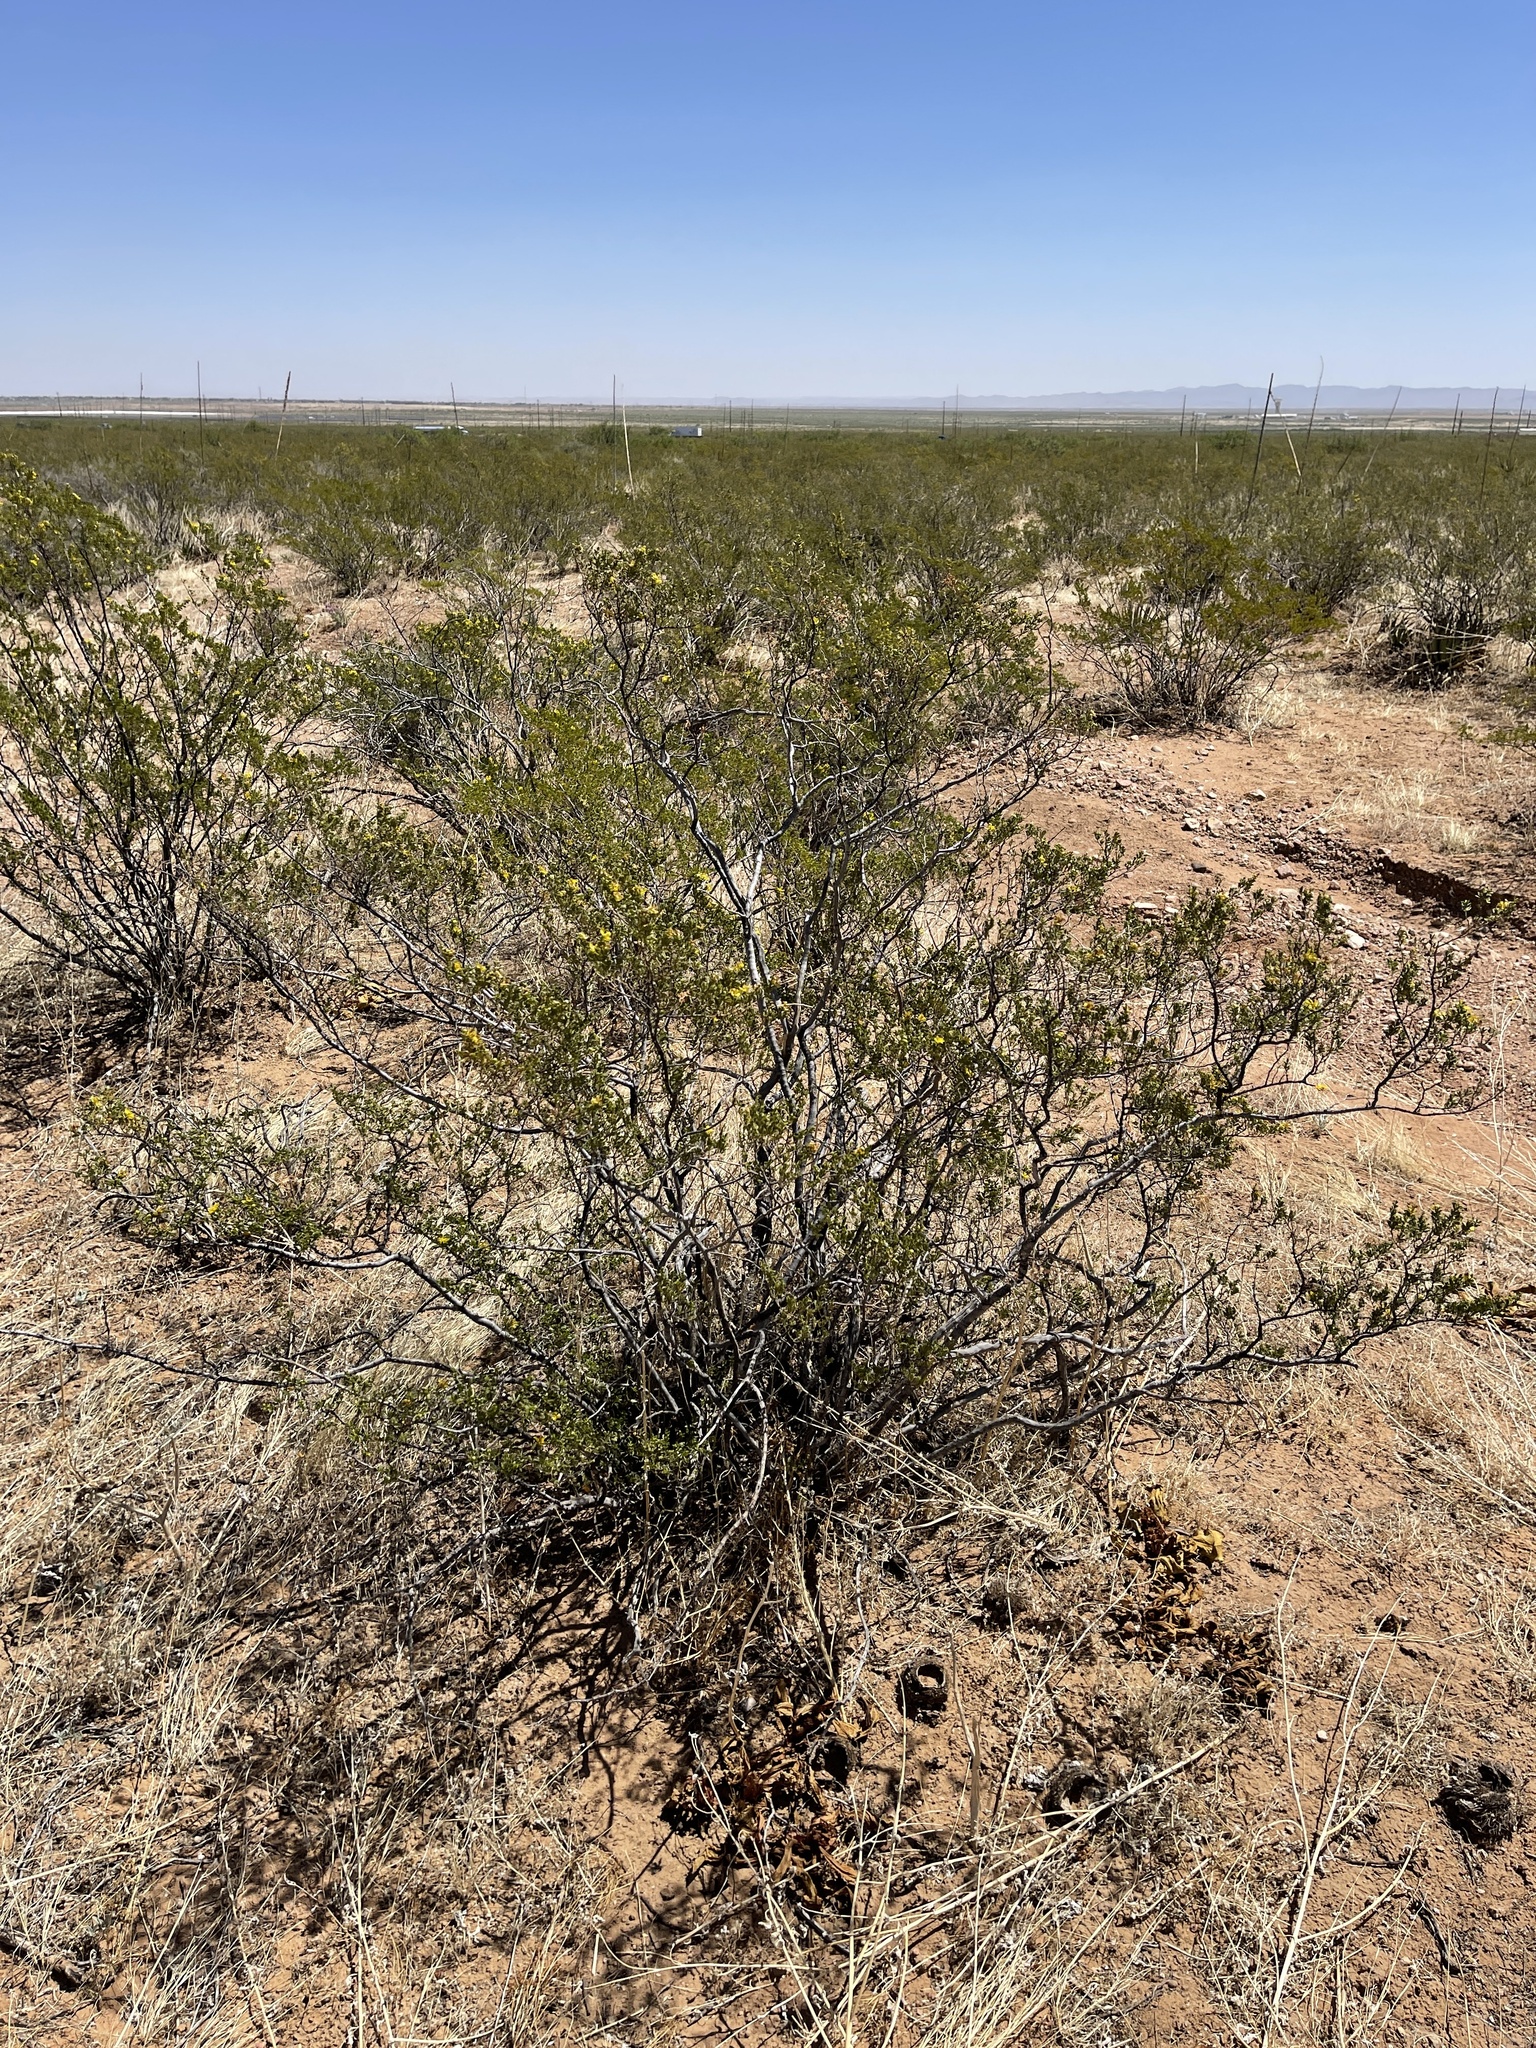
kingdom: Plantae
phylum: Tracheophyta
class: Magnoliopsida
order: Zygophyllales
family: Zygophyllaceae
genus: Larrea
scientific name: Larrea tridentata
